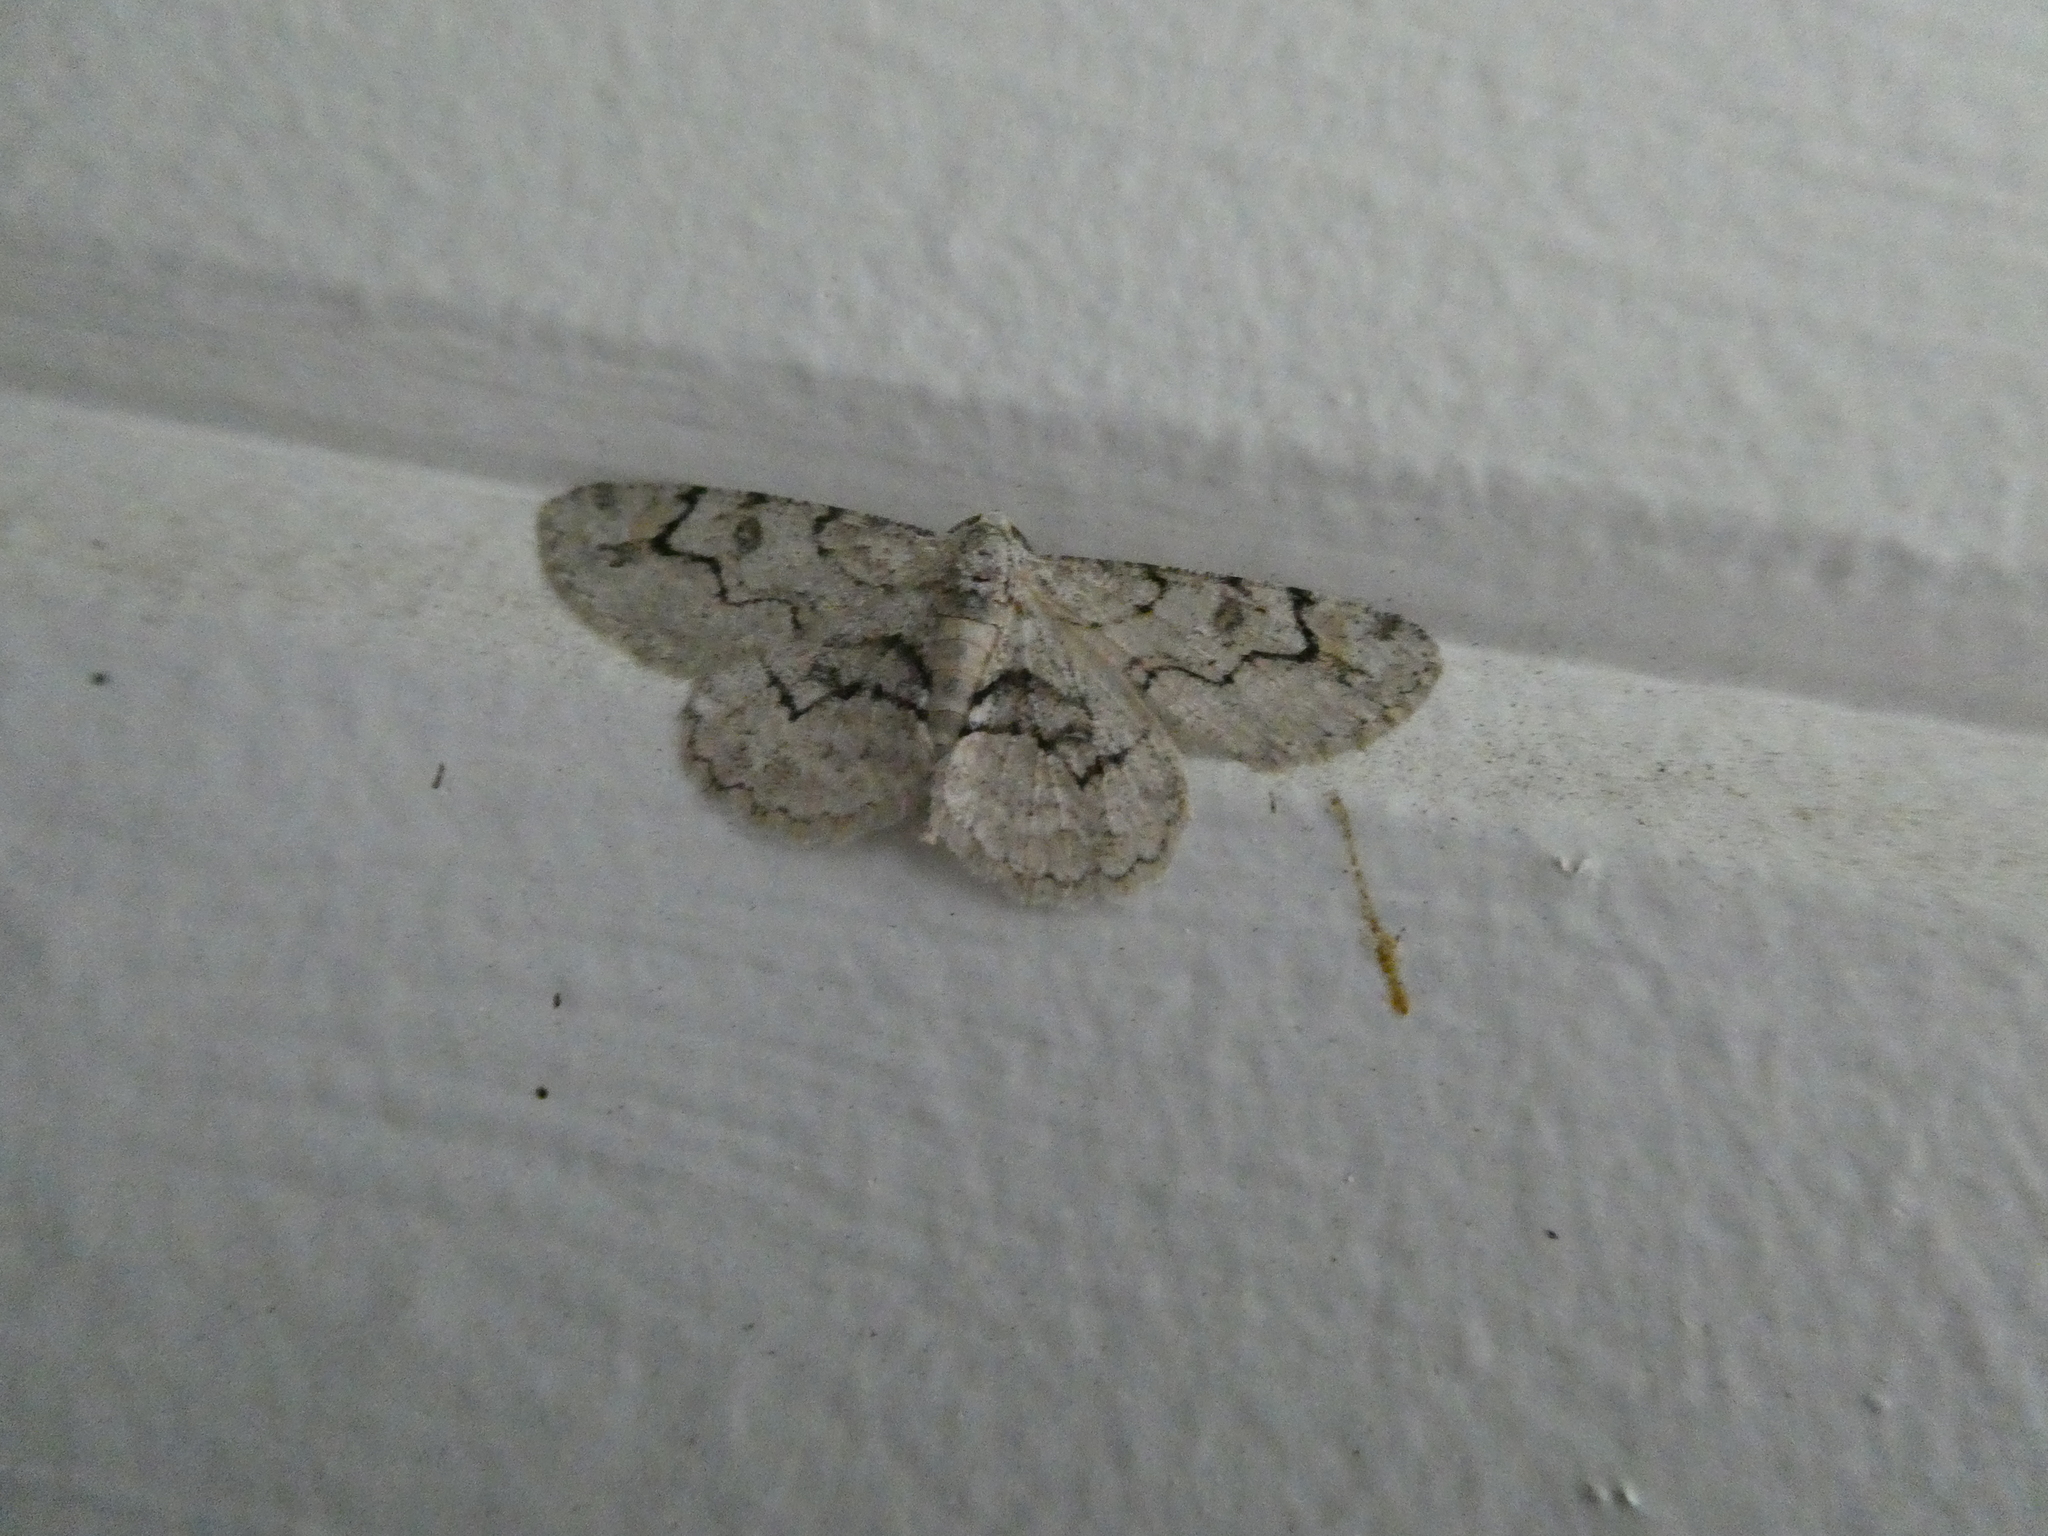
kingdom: Animalia
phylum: Arthropoda
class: Insecta
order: Lepidoptera
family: Geometridae
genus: Iridopsis
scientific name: Iridopsis larvaria
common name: Bent-line gray
